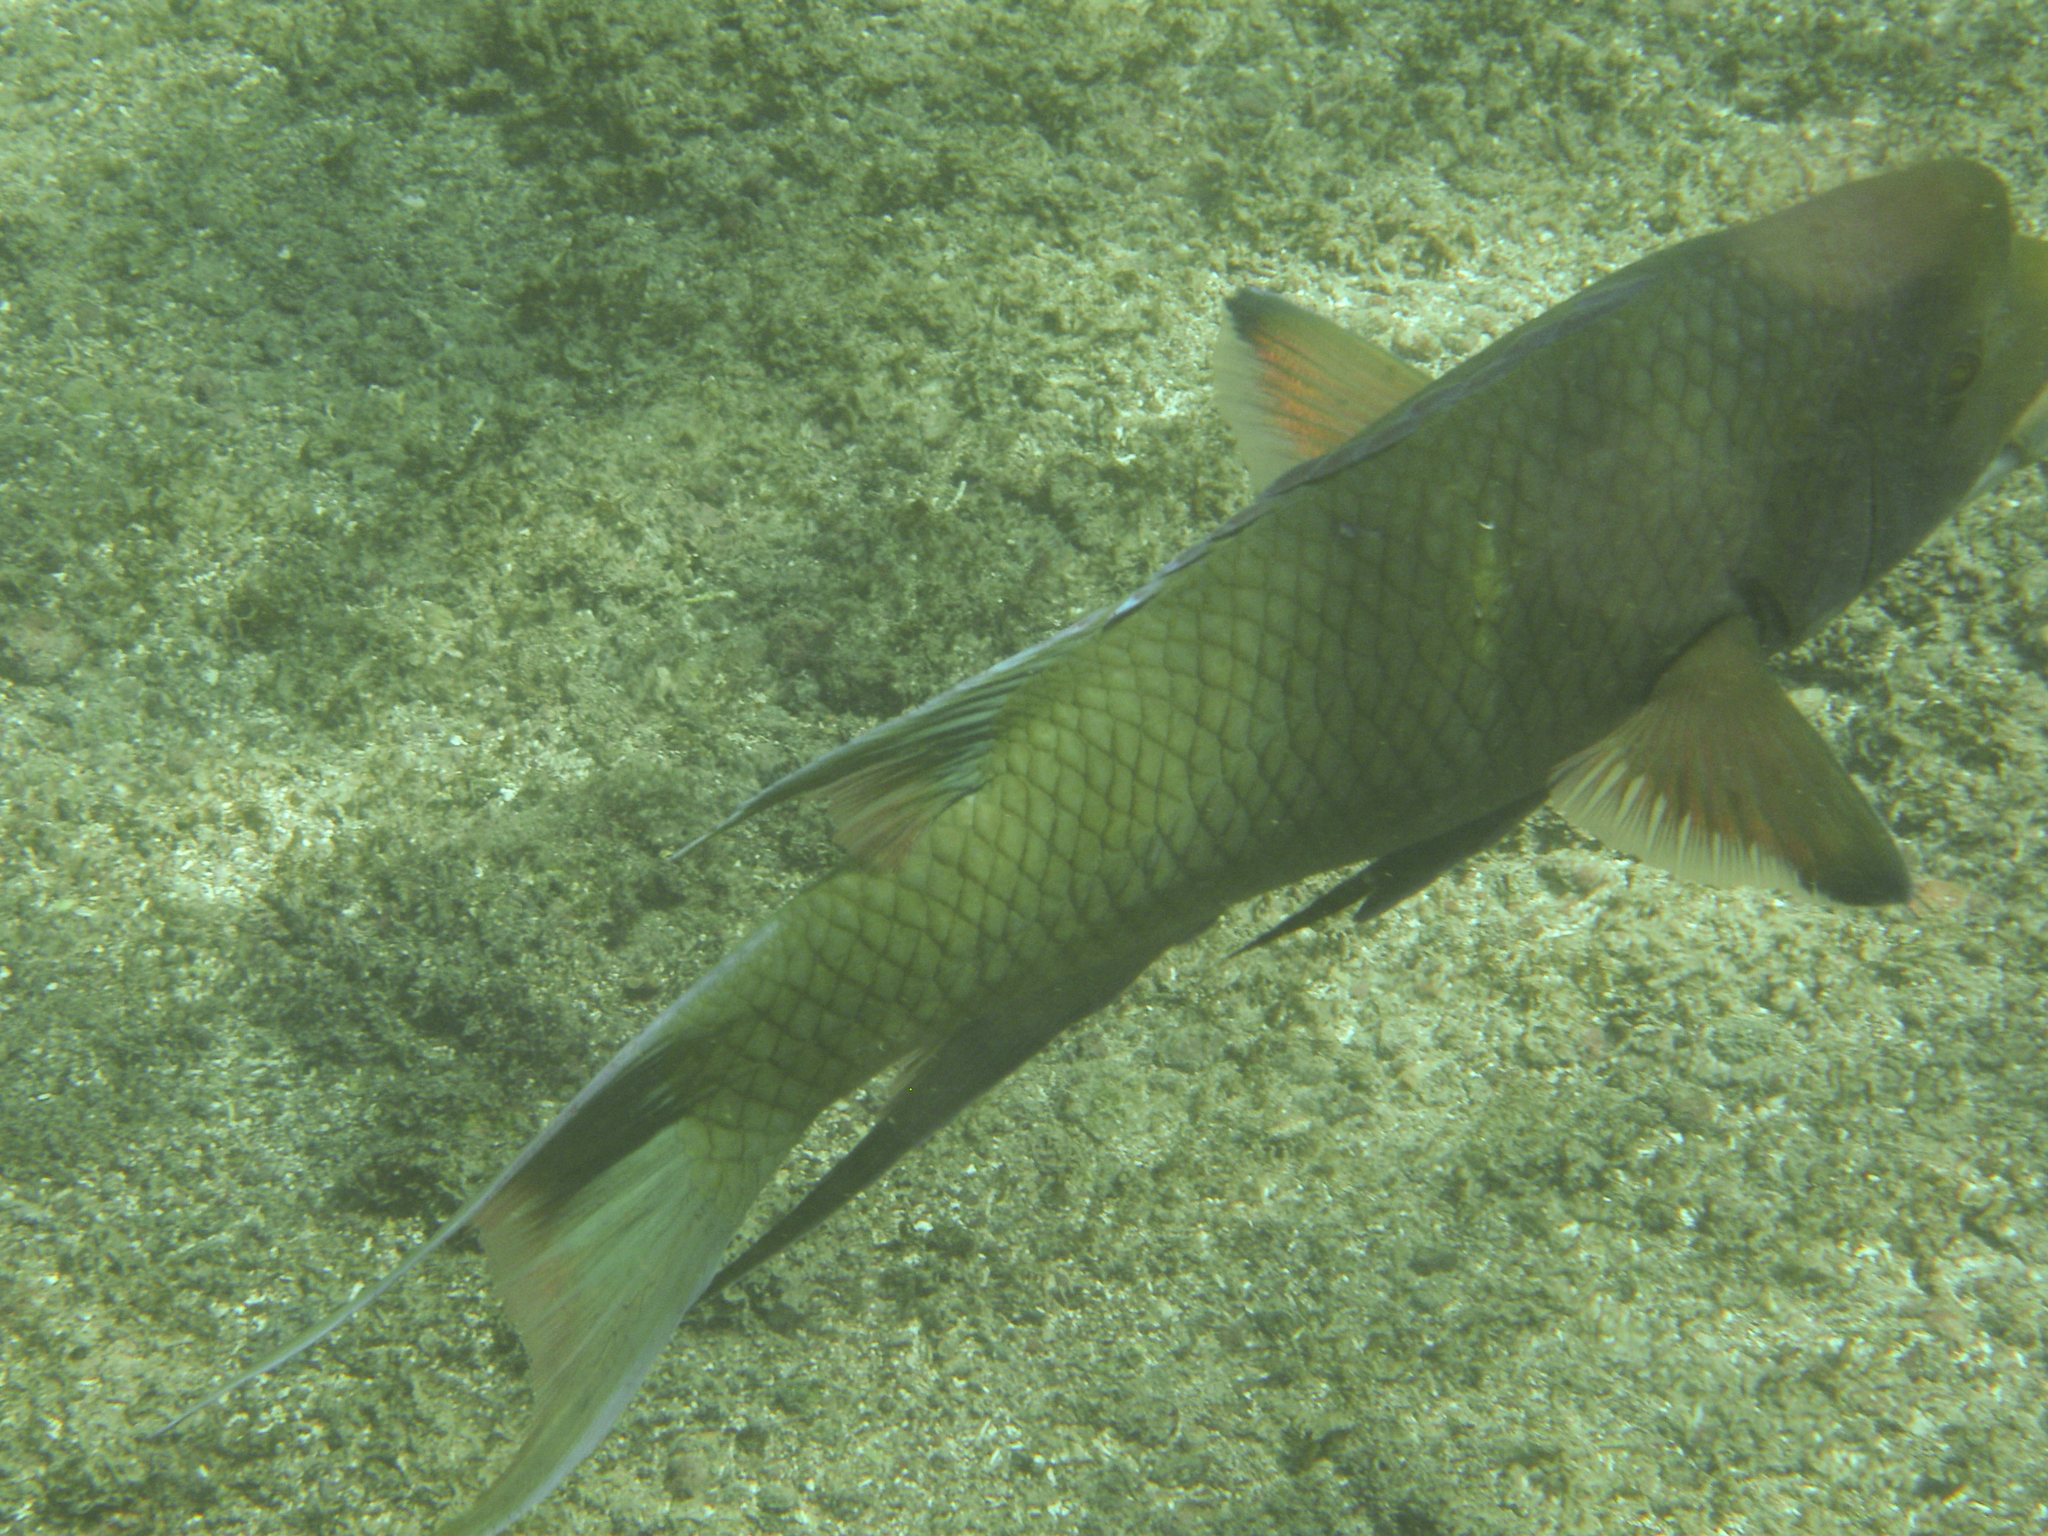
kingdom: Animalia
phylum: Chordata
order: Perciformes
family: Labridae
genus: Bodianus
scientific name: Bodianus diplotaenia
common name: Mexican hogfish
